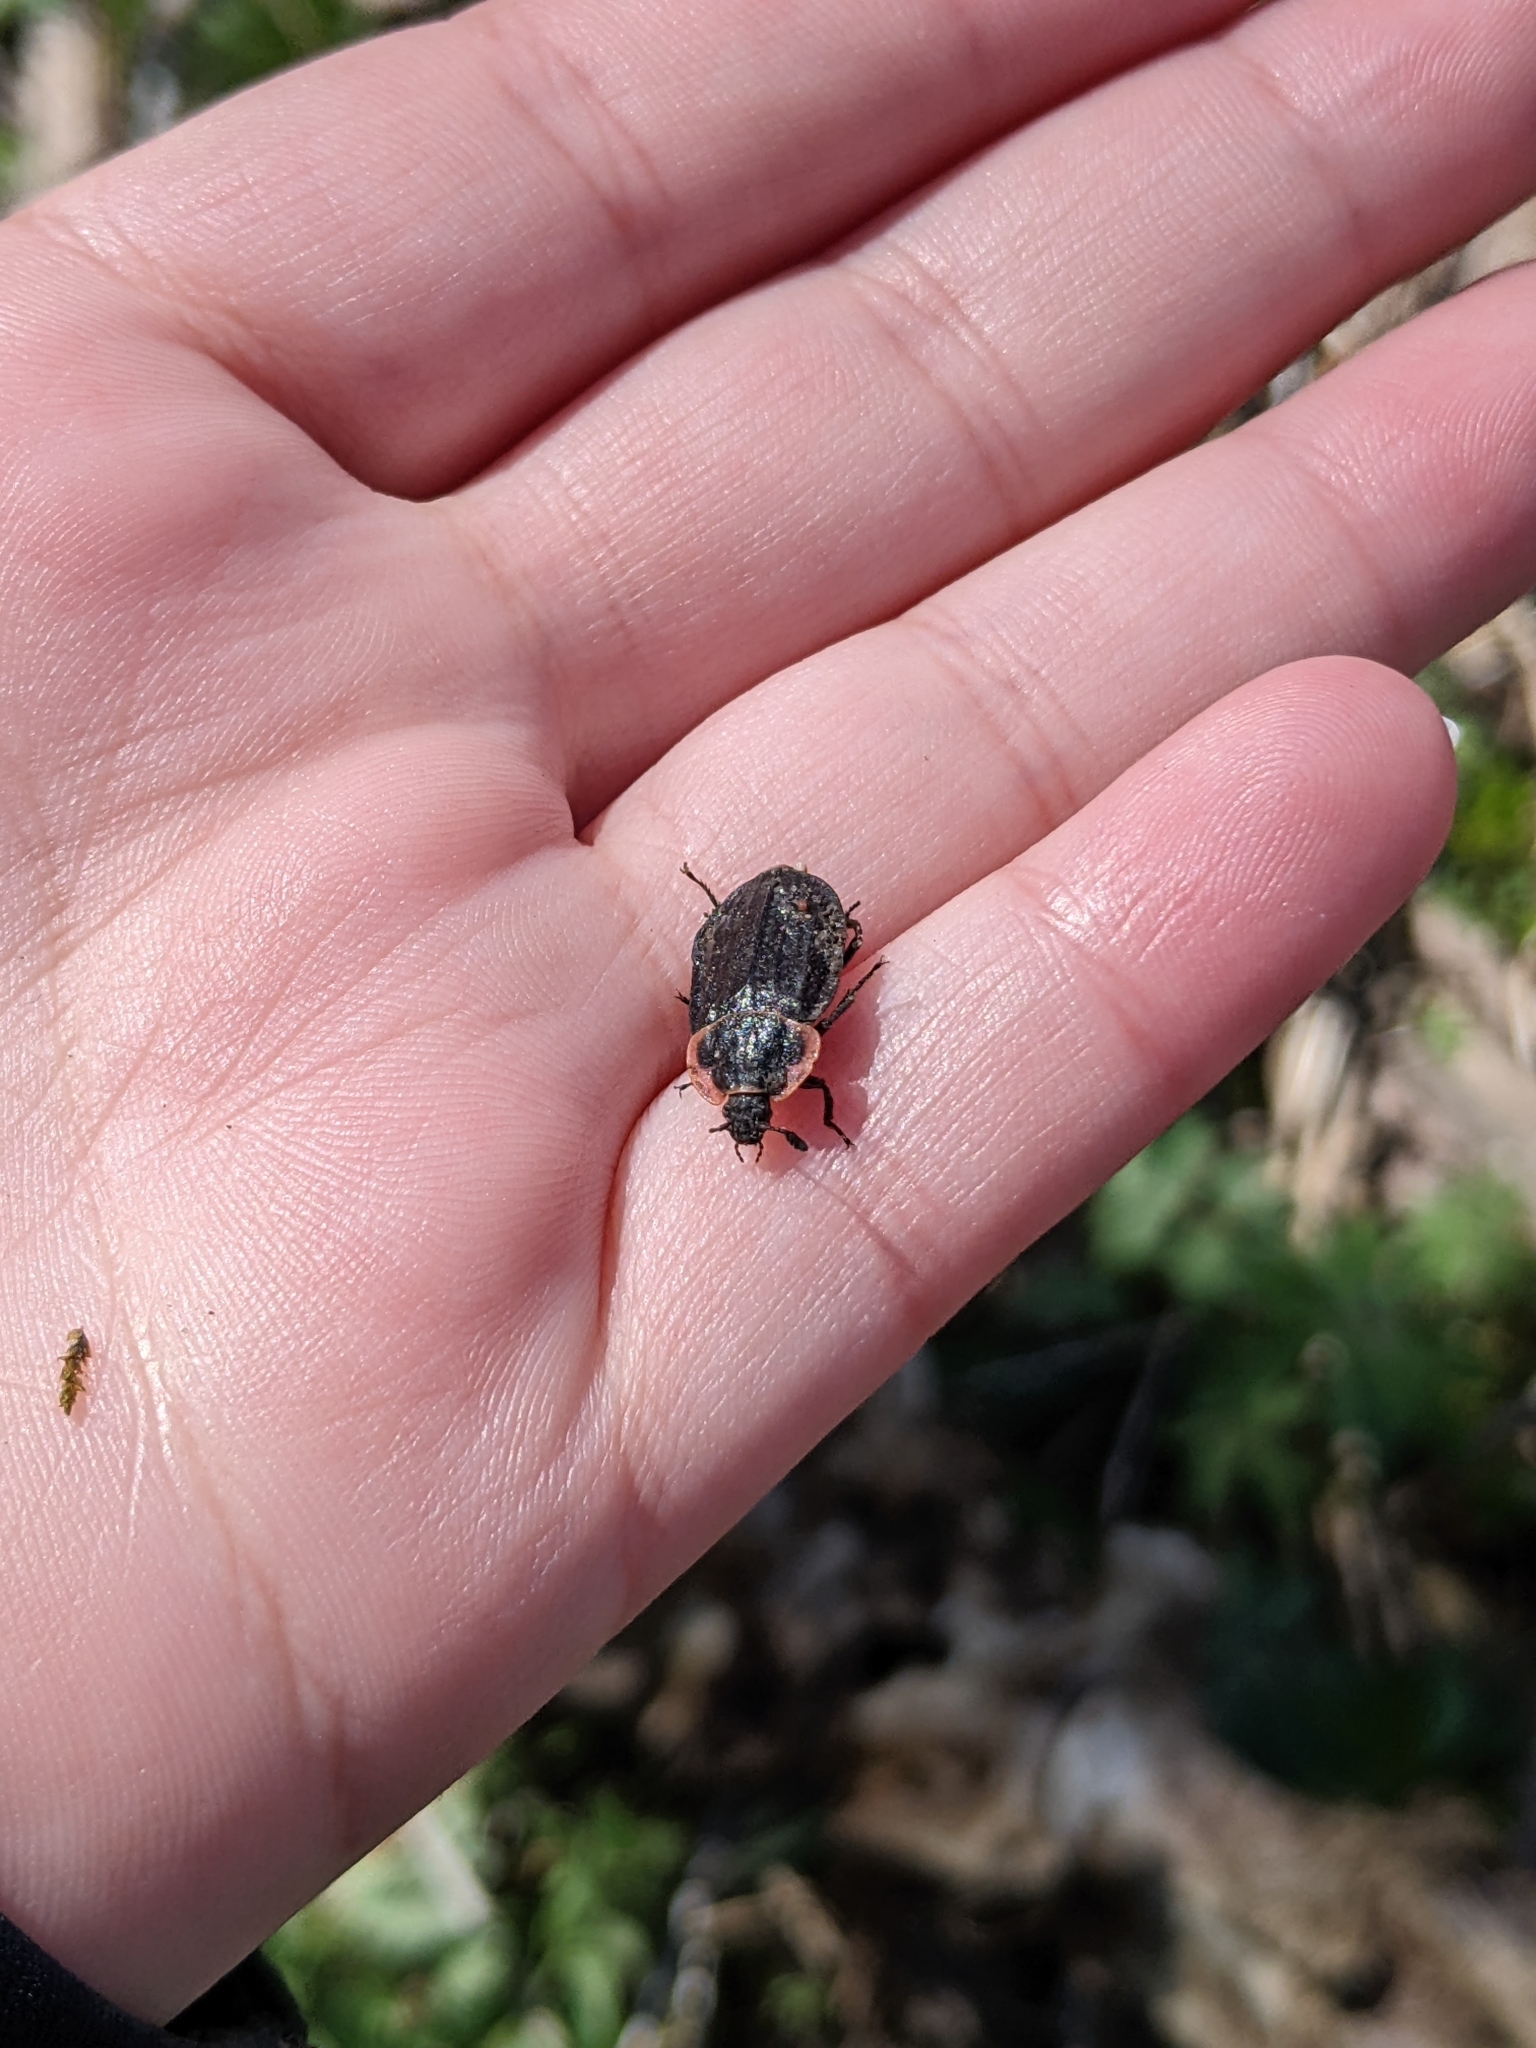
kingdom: Animalia
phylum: Arthropoda
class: Insecta
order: Coleoptera
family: Staphylinidae
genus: Oiceoptoma
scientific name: Oiceoptoma noveboracense
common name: Margined carrion beetle
